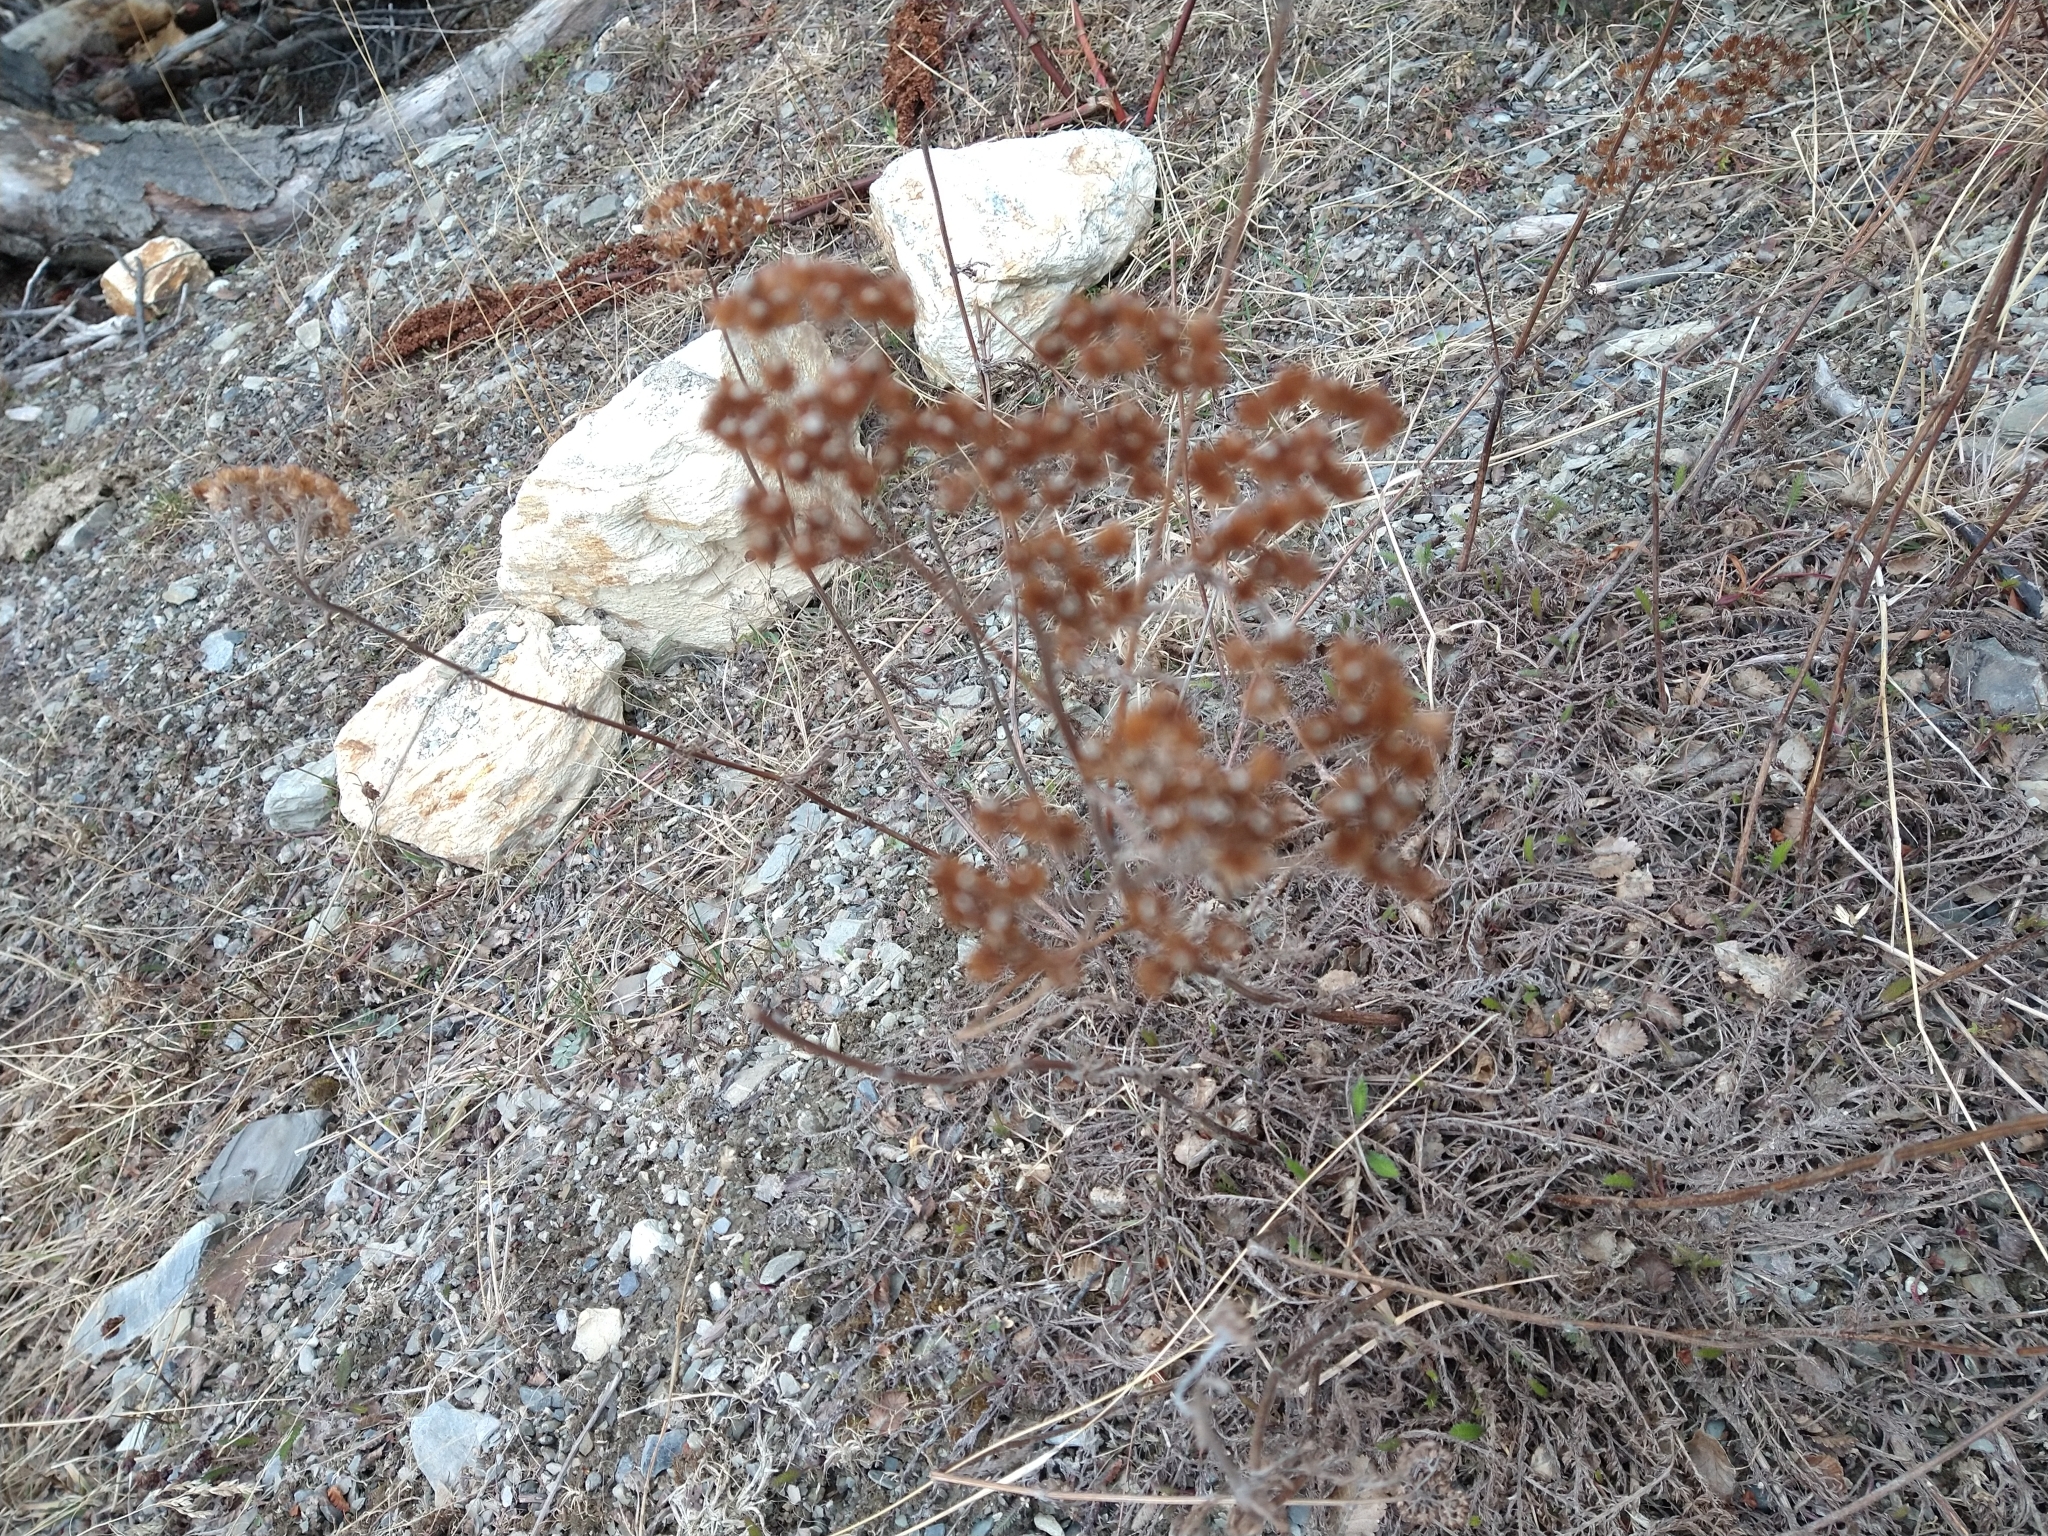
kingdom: Plantae
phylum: Tracheophyta
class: Magnoliopsida
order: Asterales
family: Asteraceae
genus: Achillea
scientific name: Achillea millefolium
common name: Yarrow
